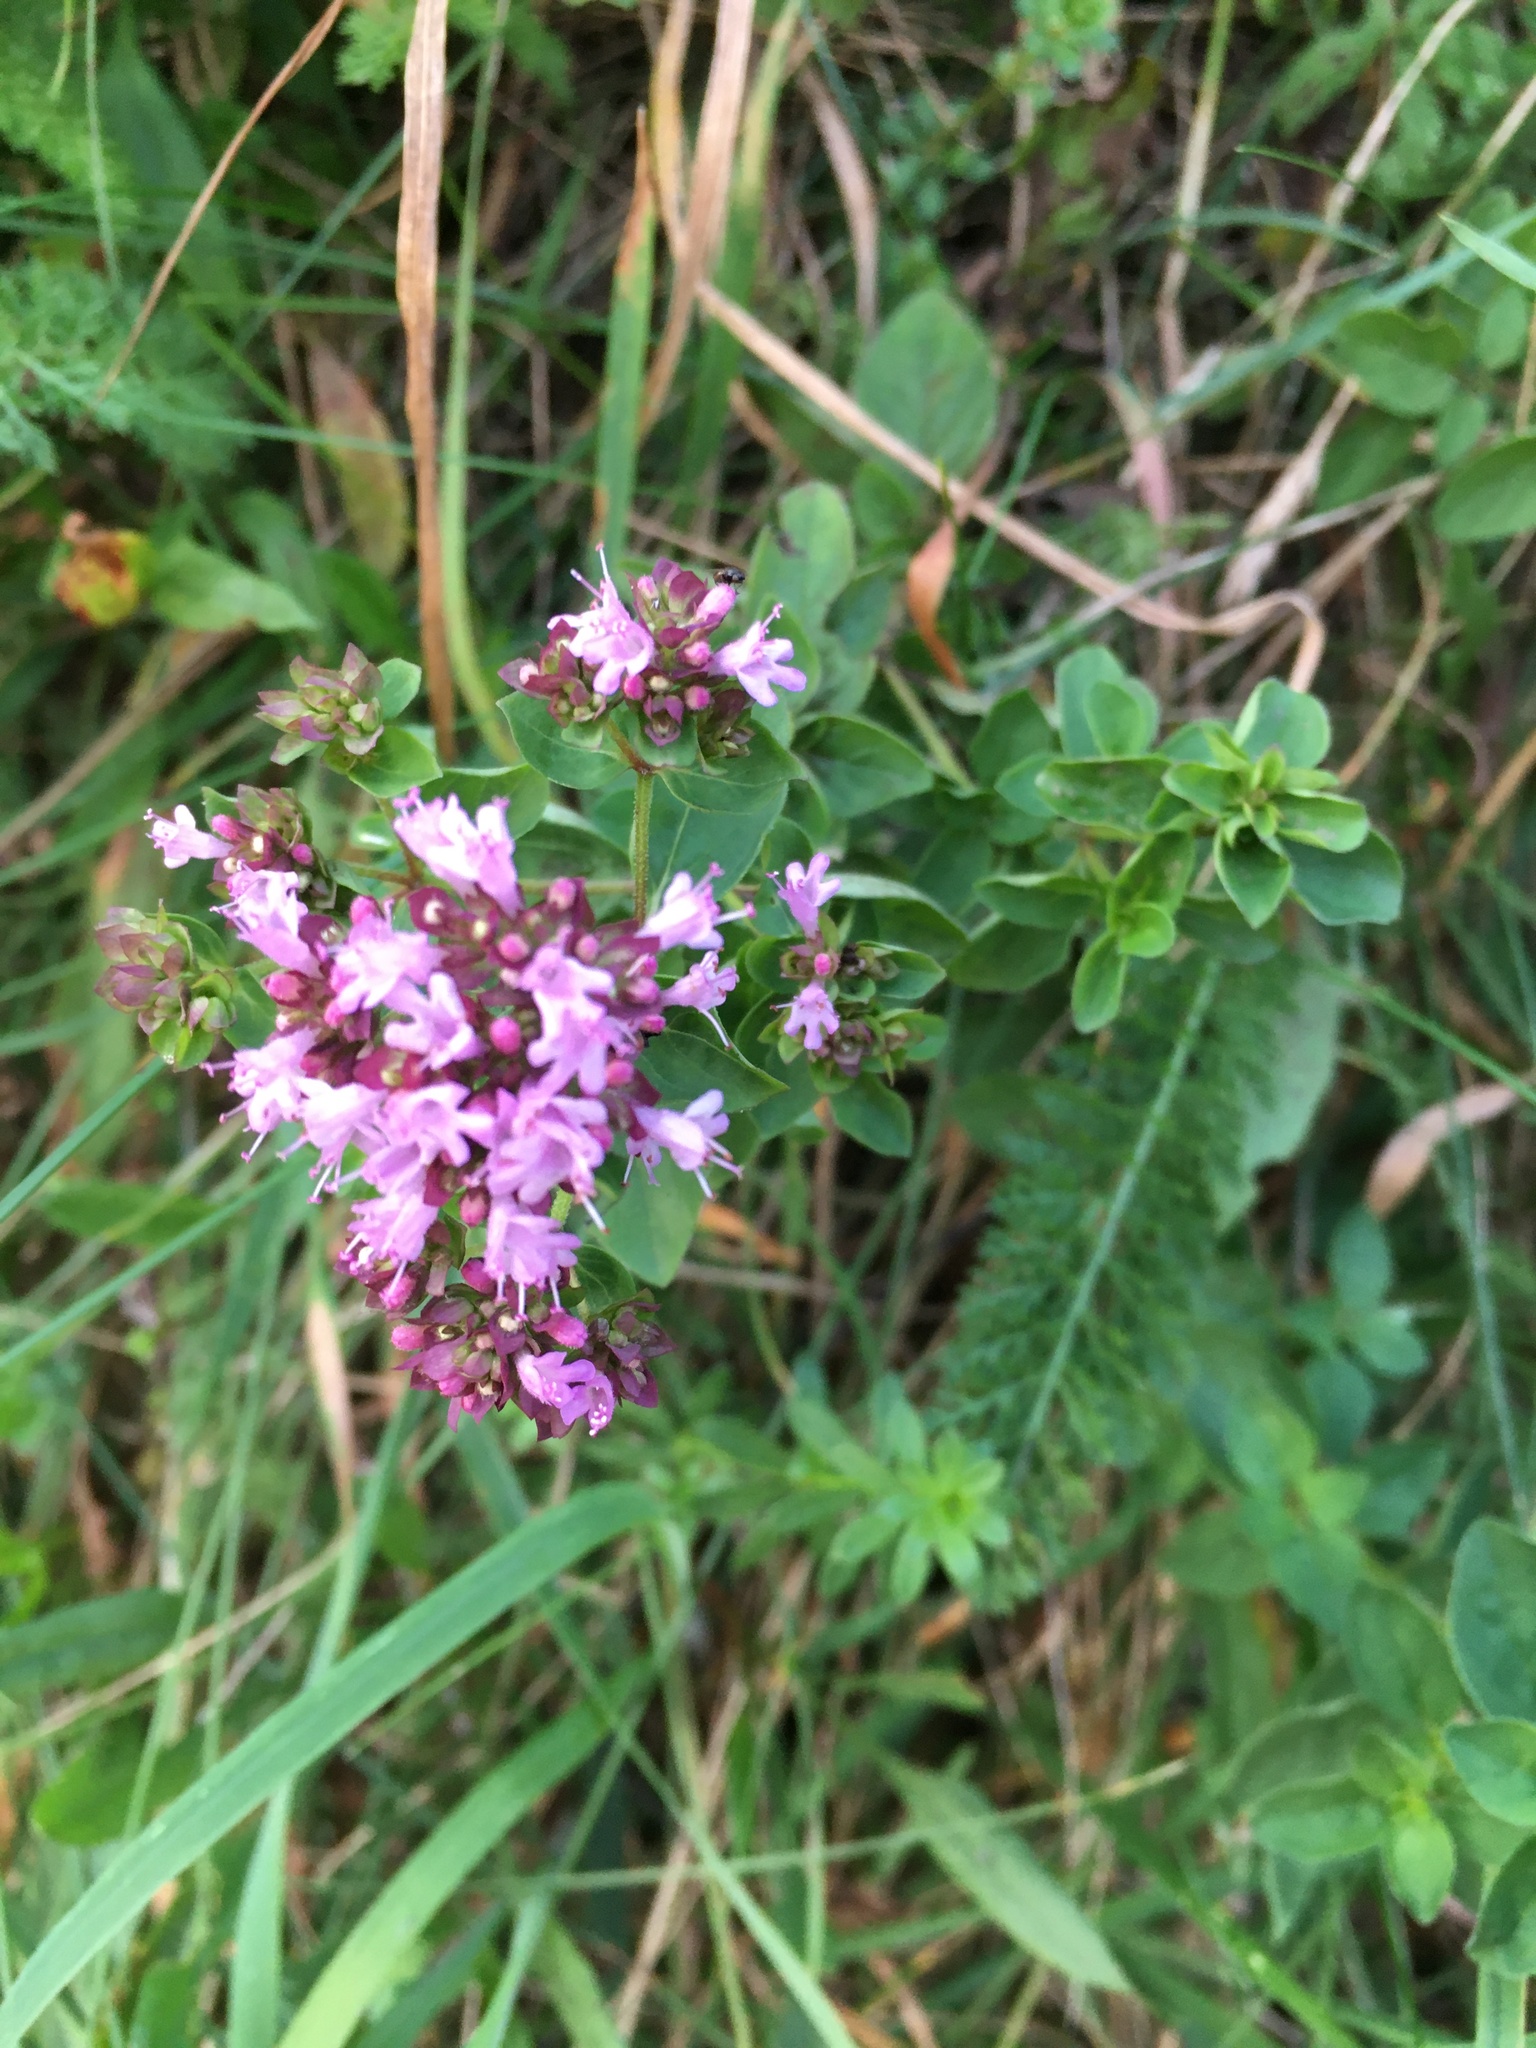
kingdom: Plantae
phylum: Tracheophyta
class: Magnoliopsida
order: Lamiales
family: Lamiaceae
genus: Origanum
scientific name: Origanum vulgare
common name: Wild marjoram
